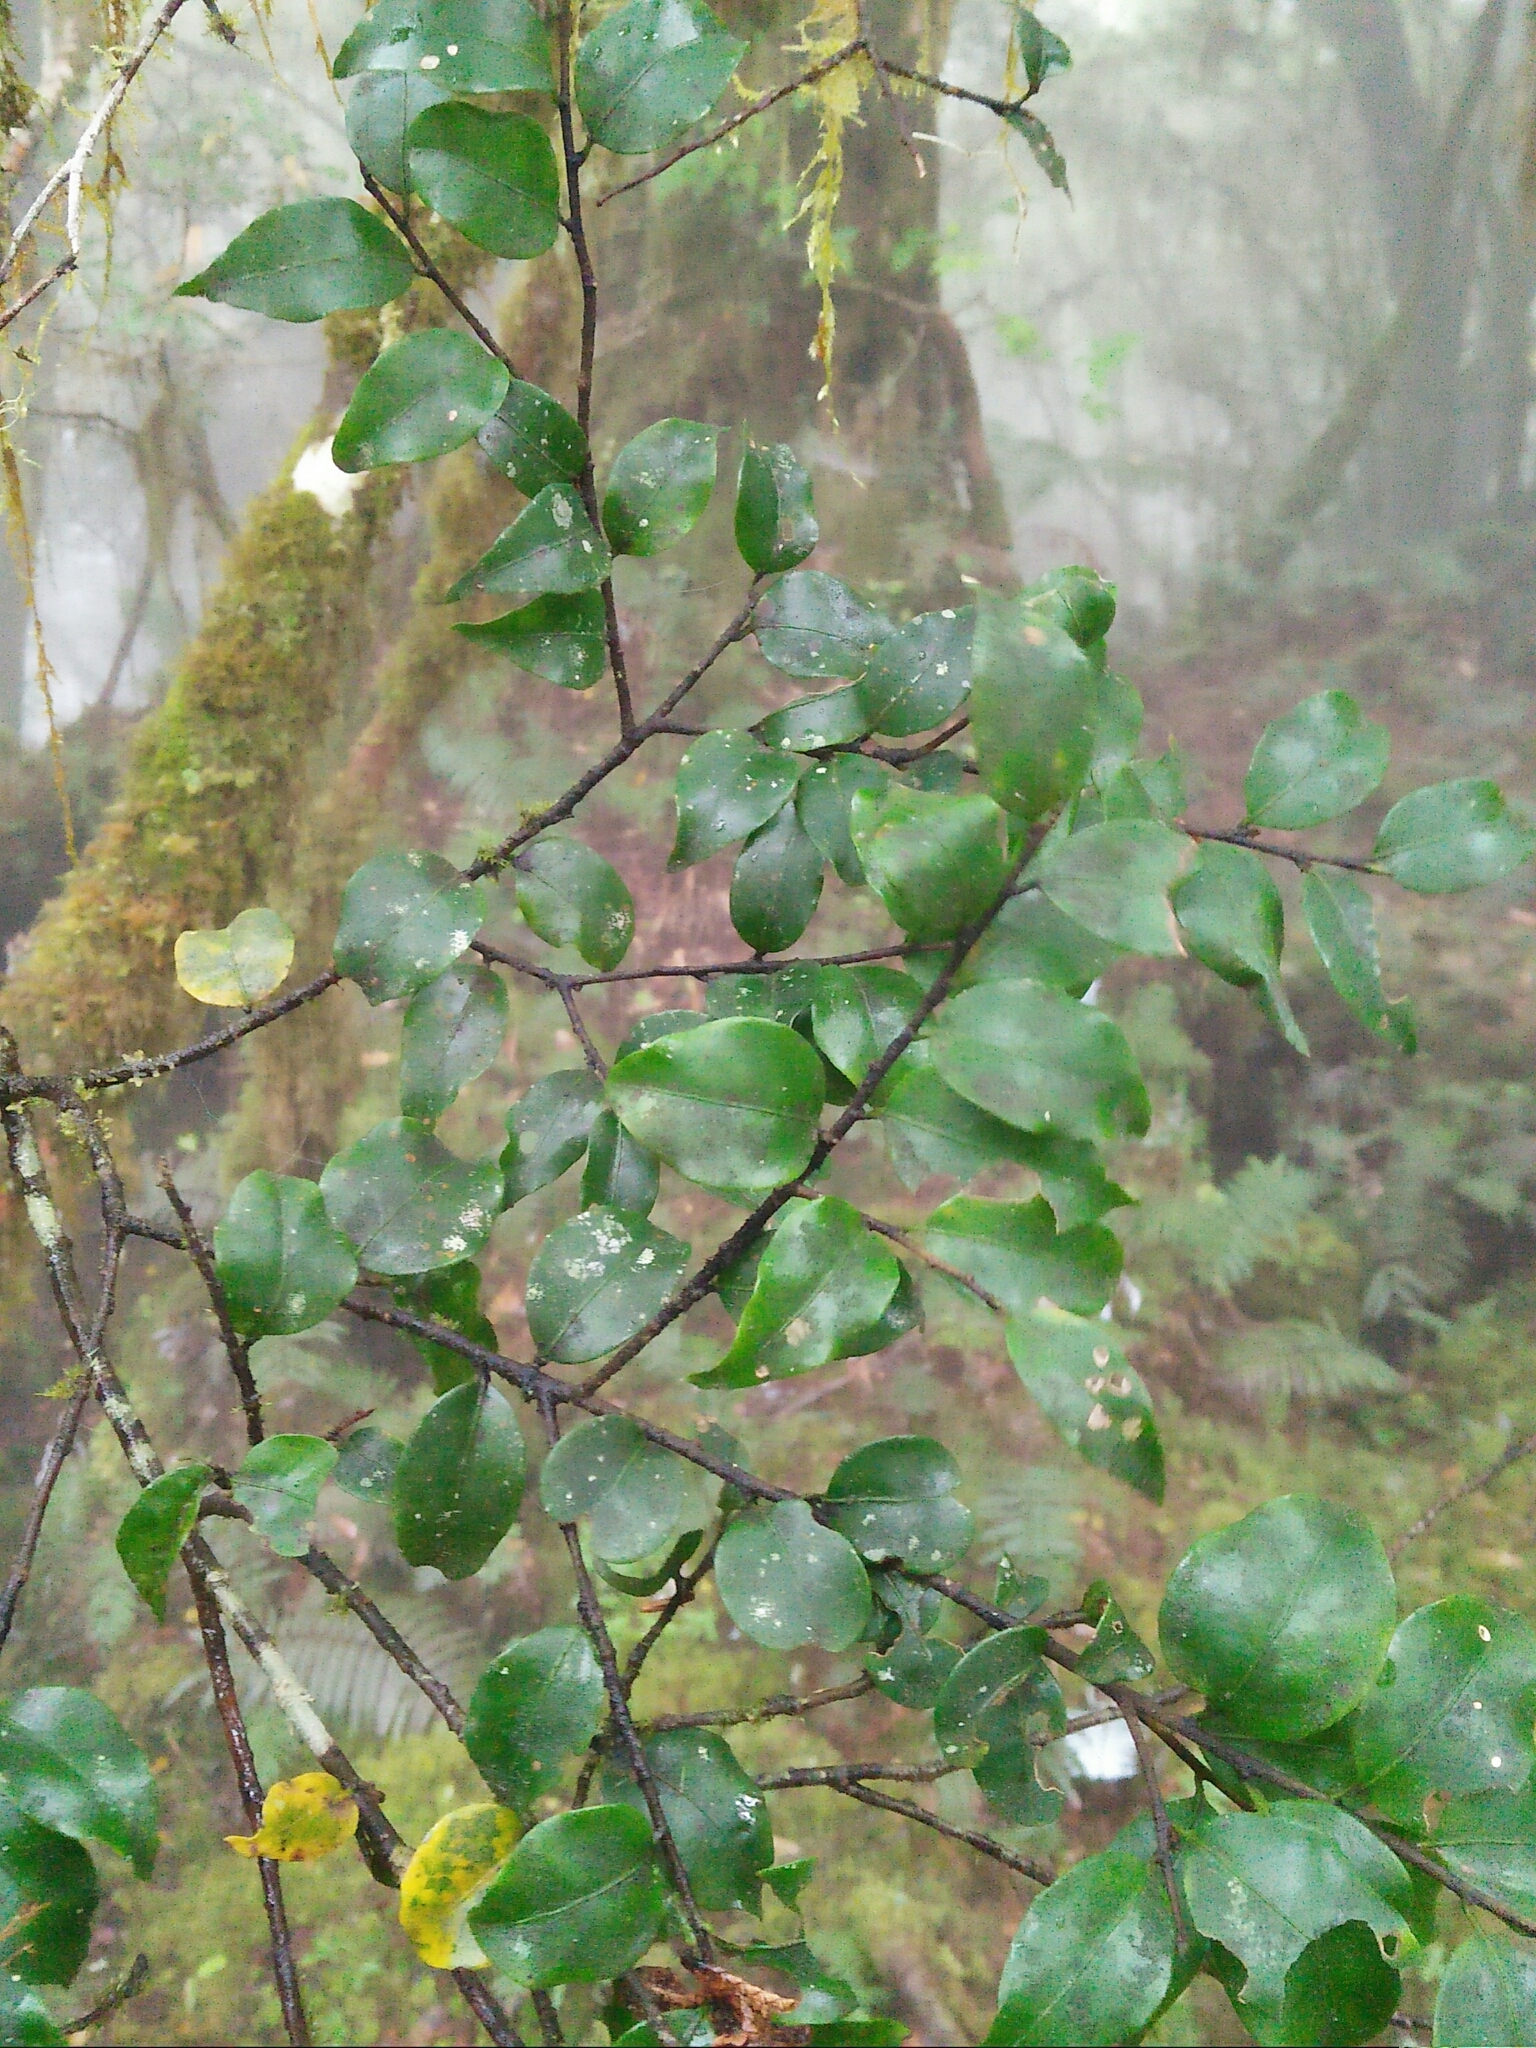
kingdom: Plantae
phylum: Tracheophyta
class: Magnoliopsida
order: Ericales
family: Symplocaceae
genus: Symplocos
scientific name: Symplocos anomala
